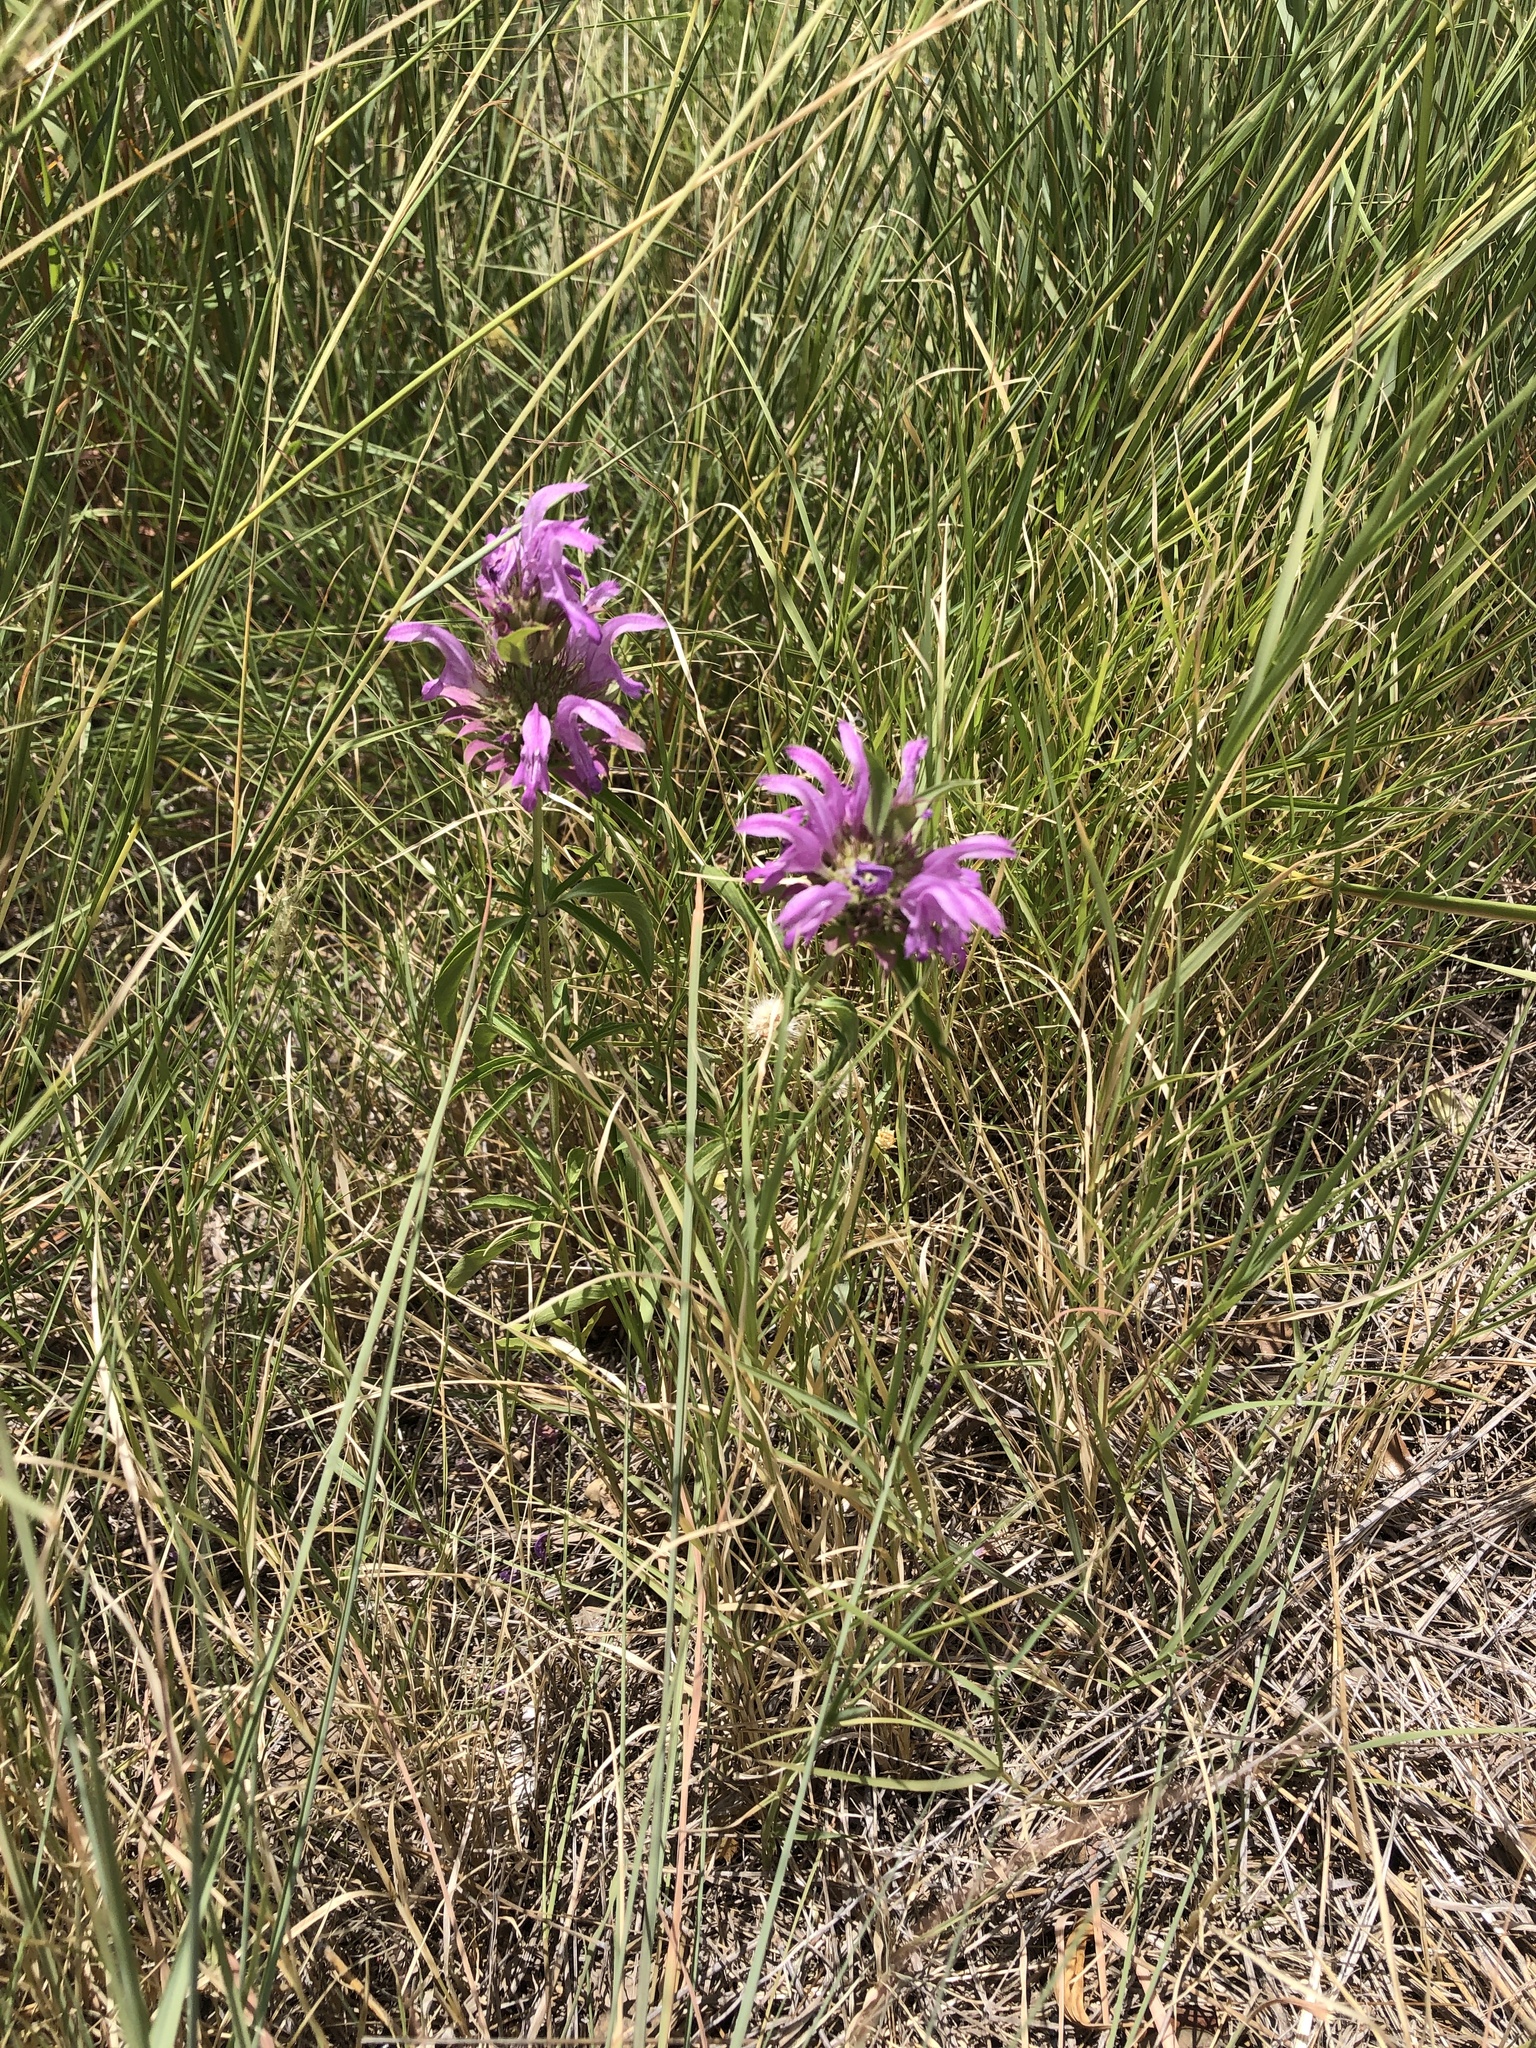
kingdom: Plantae
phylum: Tracheophyta
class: Magnoliopsida
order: Lamiales
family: Lamiaceae
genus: Monarda
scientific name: Monarda citriodora
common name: Lemon beebalm
